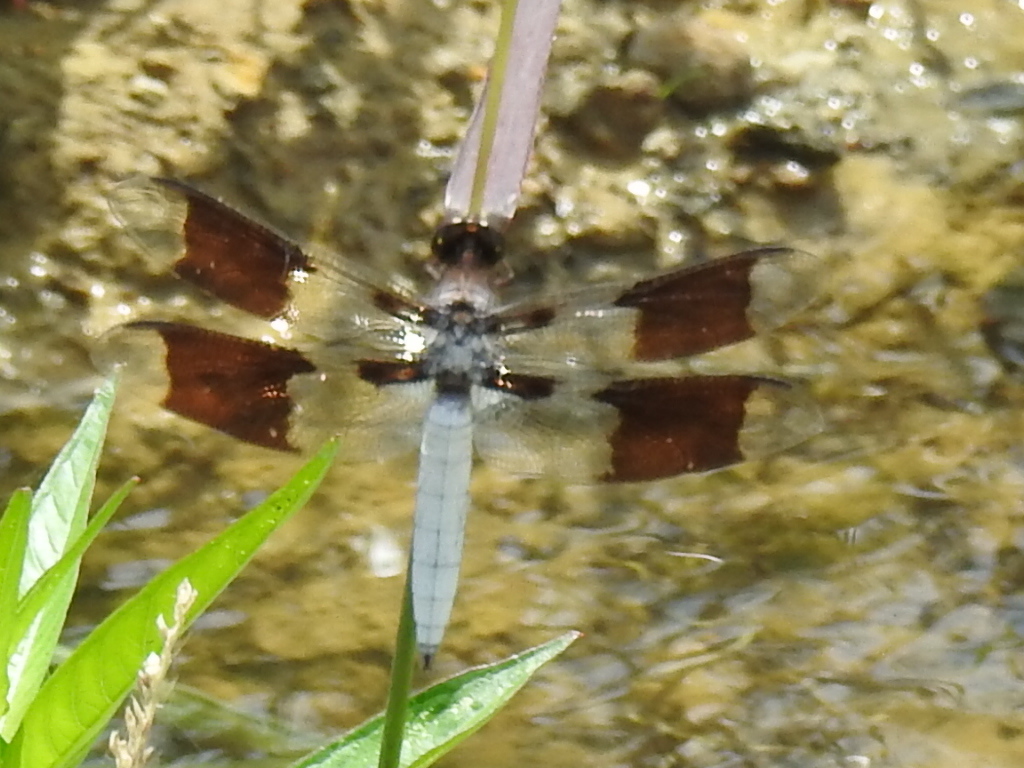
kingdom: Animalia
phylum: Arthropoda
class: Insecta
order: Odonata
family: Libellulidae
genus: Plathemis
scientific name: Plathemis lydia
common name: Common whitetail
